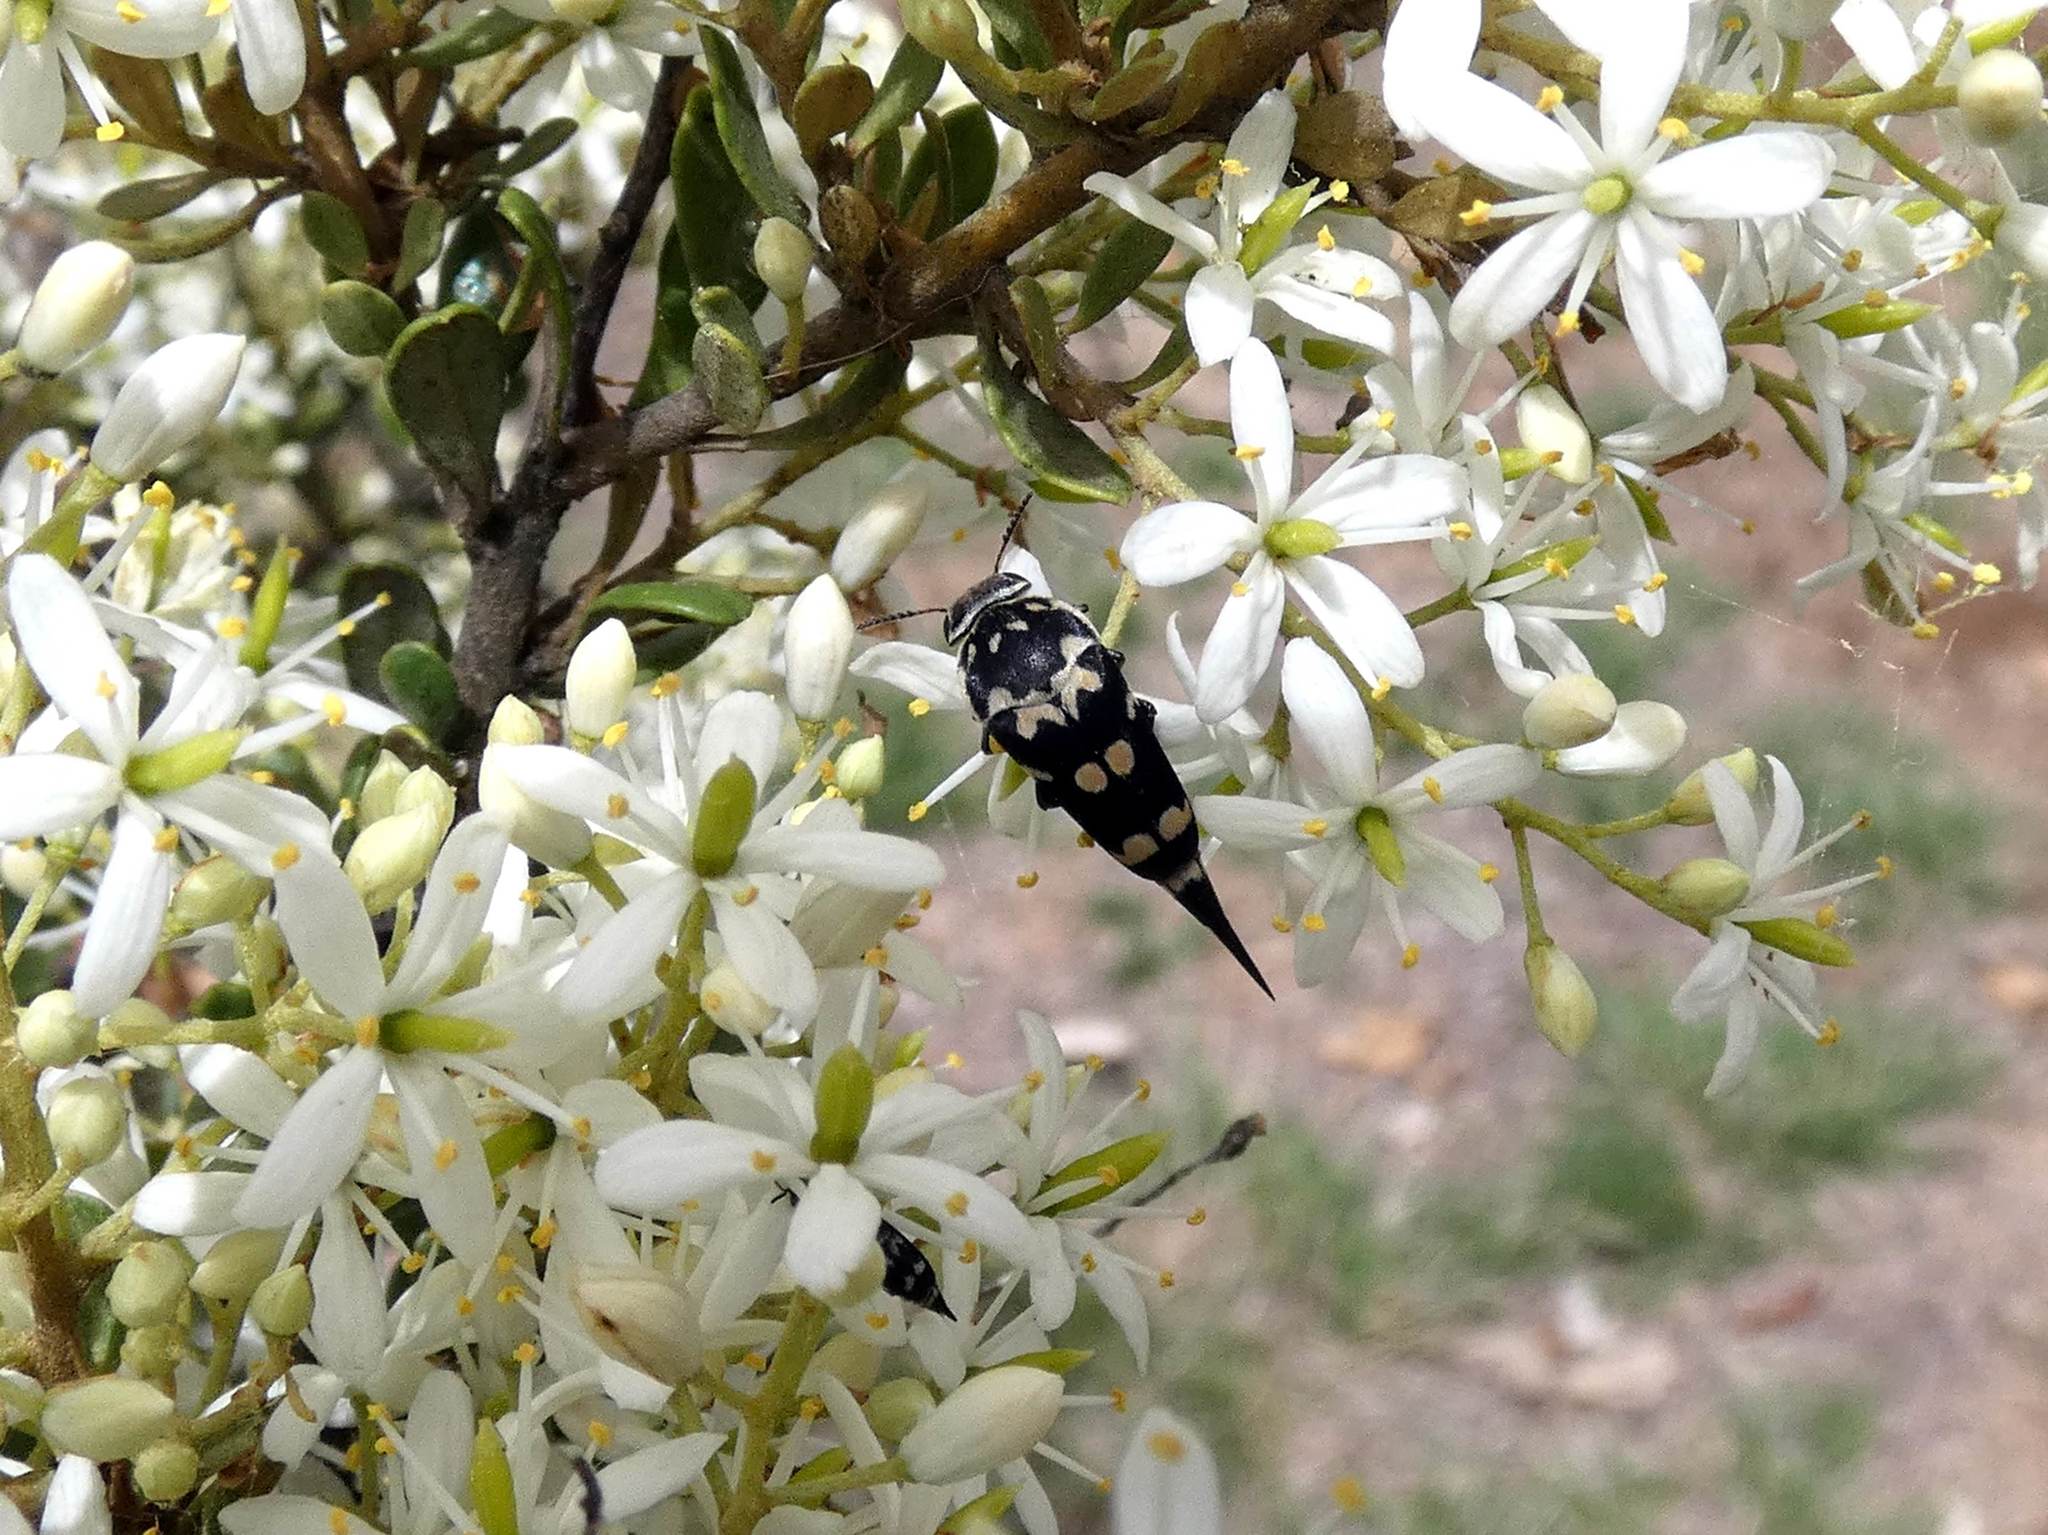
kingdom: Animalia
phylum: Arthropoda
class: Insecta
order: Coleoptera
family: Mordellidae
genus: Hoshihananomia
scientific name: Hoshihananomia
